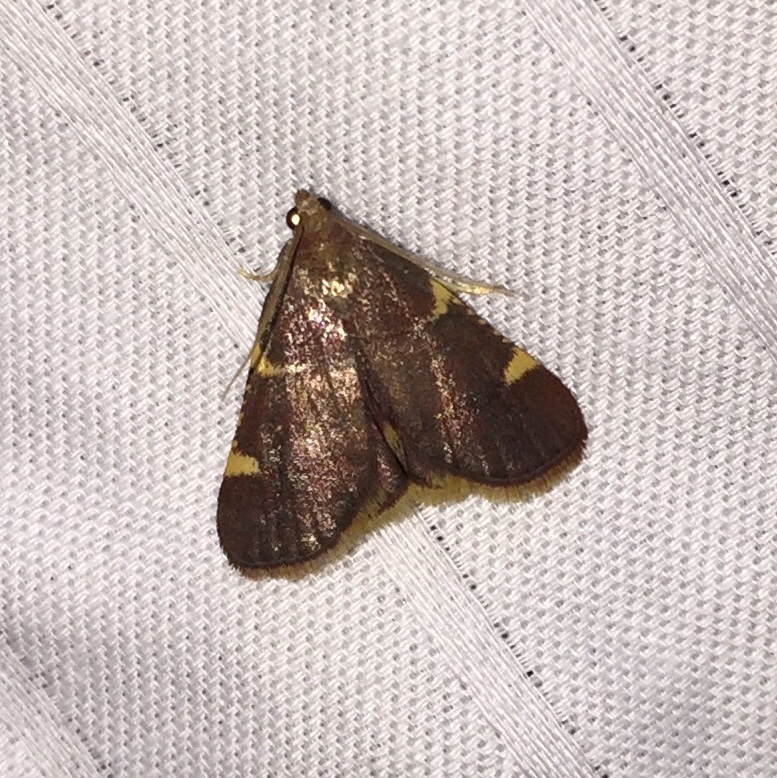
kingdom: Animalia
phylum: Arthropoda
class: Insecta
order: Lepidoptera
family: Pyralidae
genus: Hypsopygia
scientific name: Hypsopygia olinalis
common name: Yellow-fringed dolichomia moth
